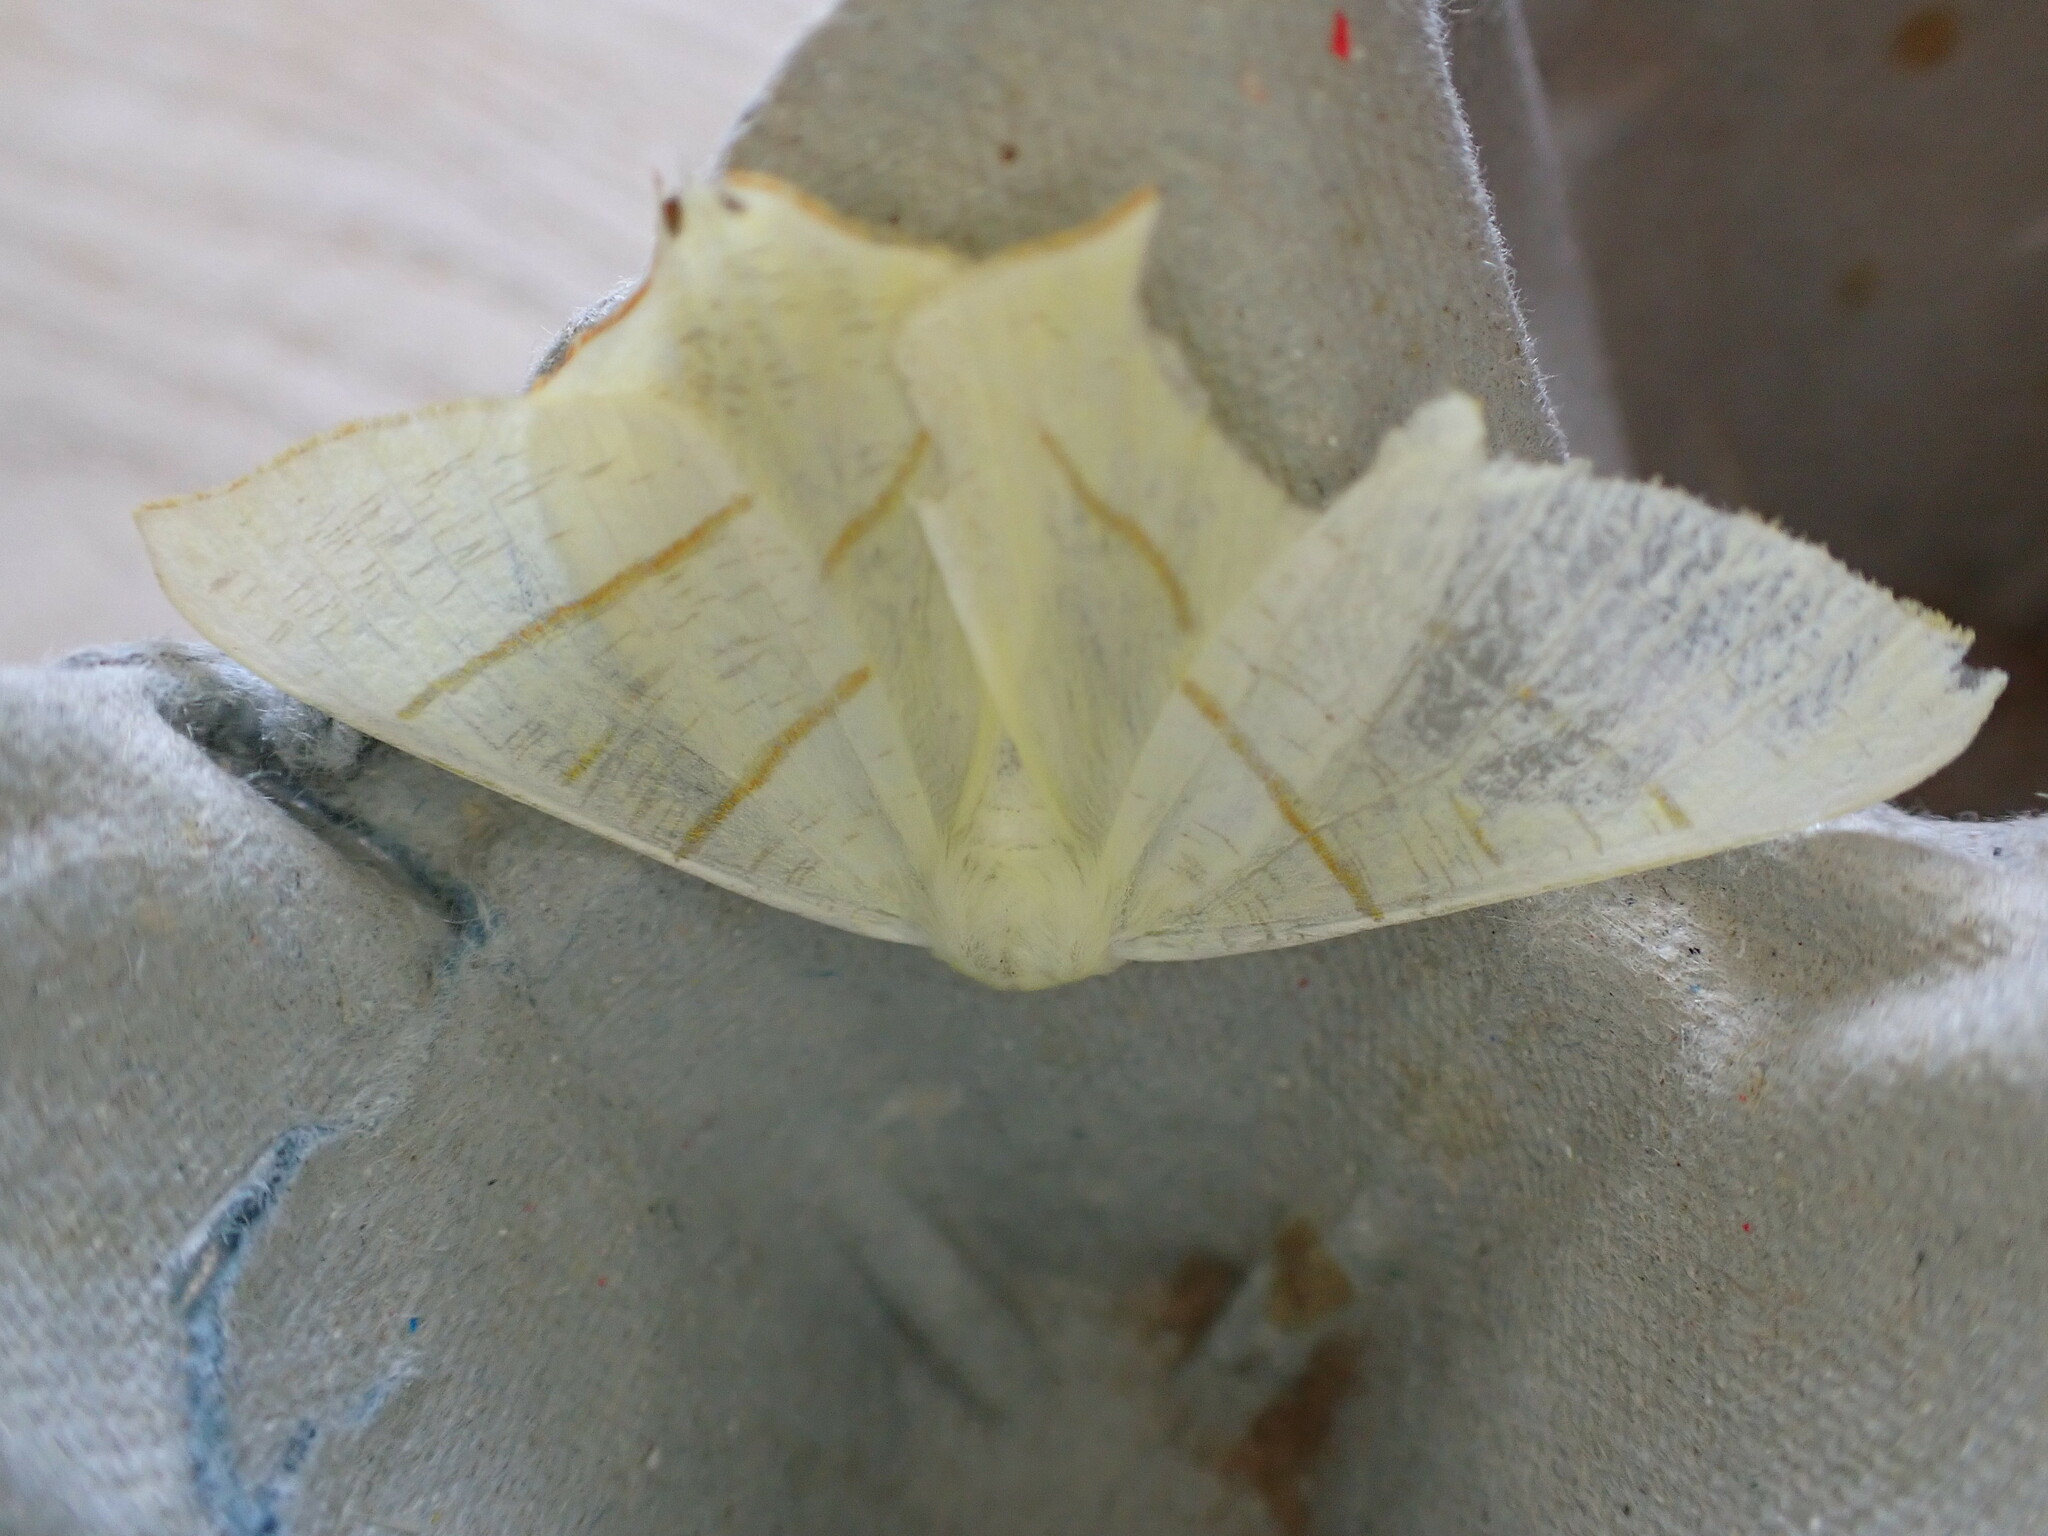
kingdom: Animalia
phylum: Arthropoda
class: Insecta
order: Lepidoptera
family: Geometridae
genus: Ourapteryx
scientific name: Ourapteryx sambucaria
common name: Swallow-tailed moth
